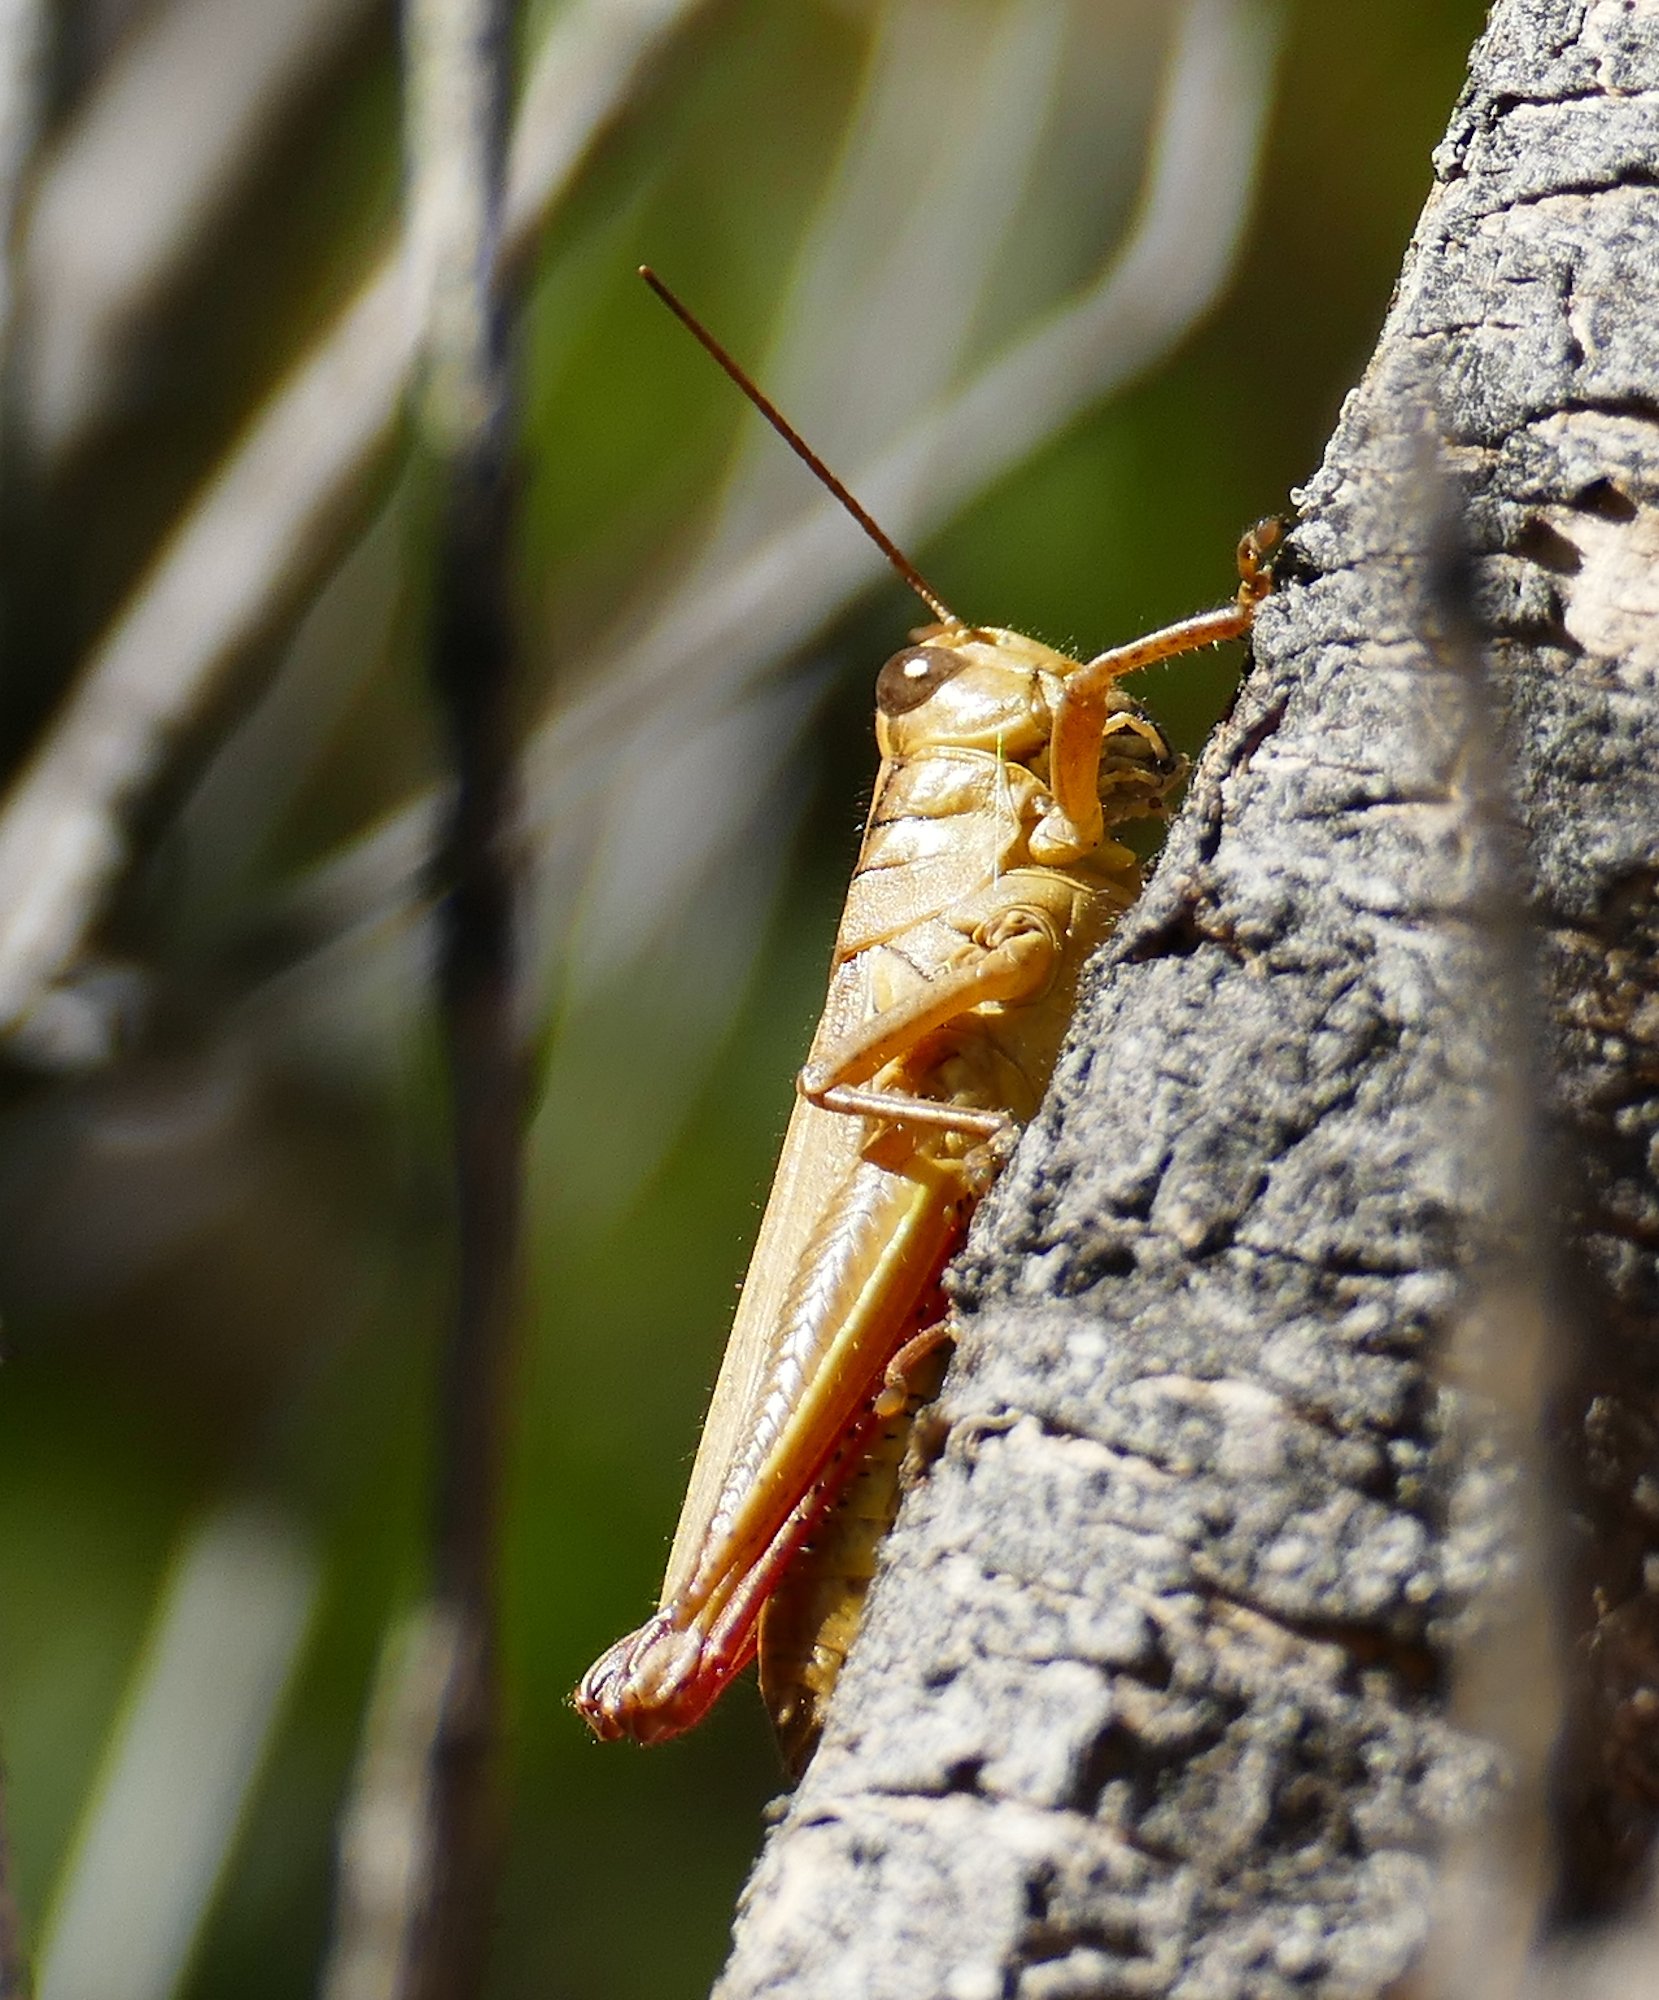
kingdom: Animalia
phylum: Arthropoda
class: Insecta
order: Orthoptera
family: Acrididae
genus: Melanoplus
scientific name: Melanoplus yarrowii
